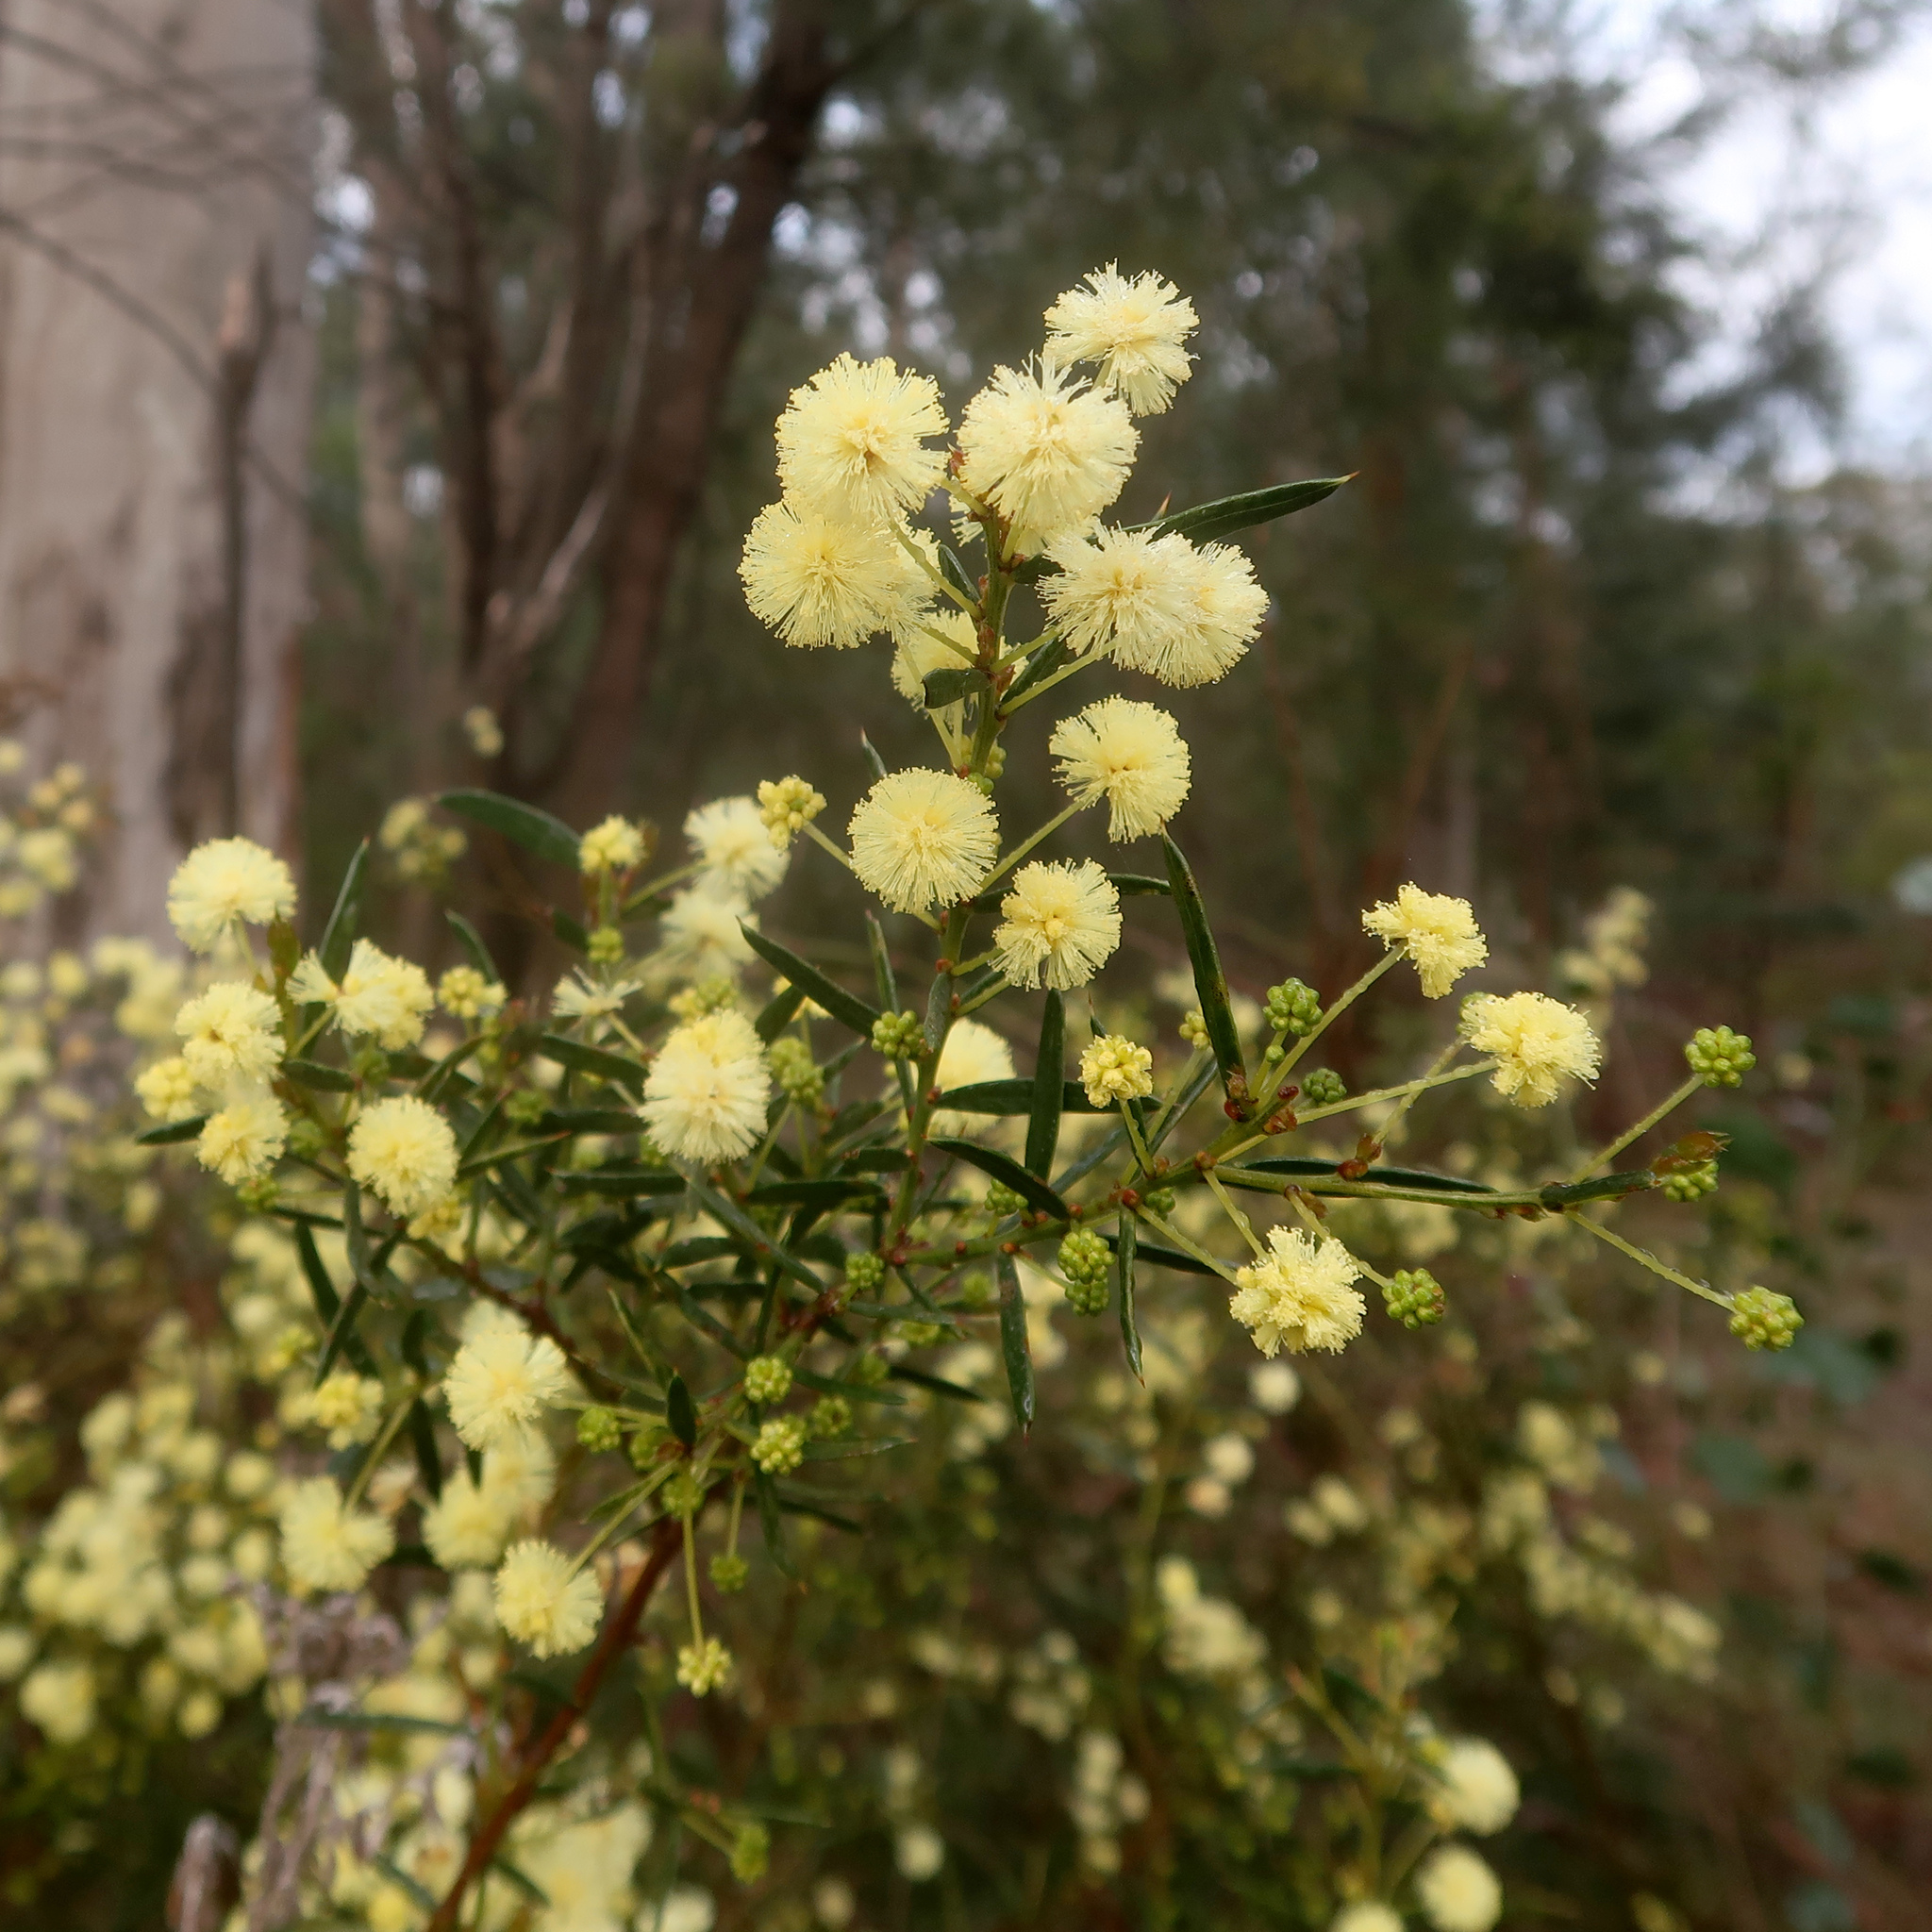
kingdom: Plantae
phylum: Tracheophyta
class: Magnoliopsida
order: Fabales
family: Fabaceae
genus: Acacia
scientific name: Acacia genistifolia
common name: Early wattle
